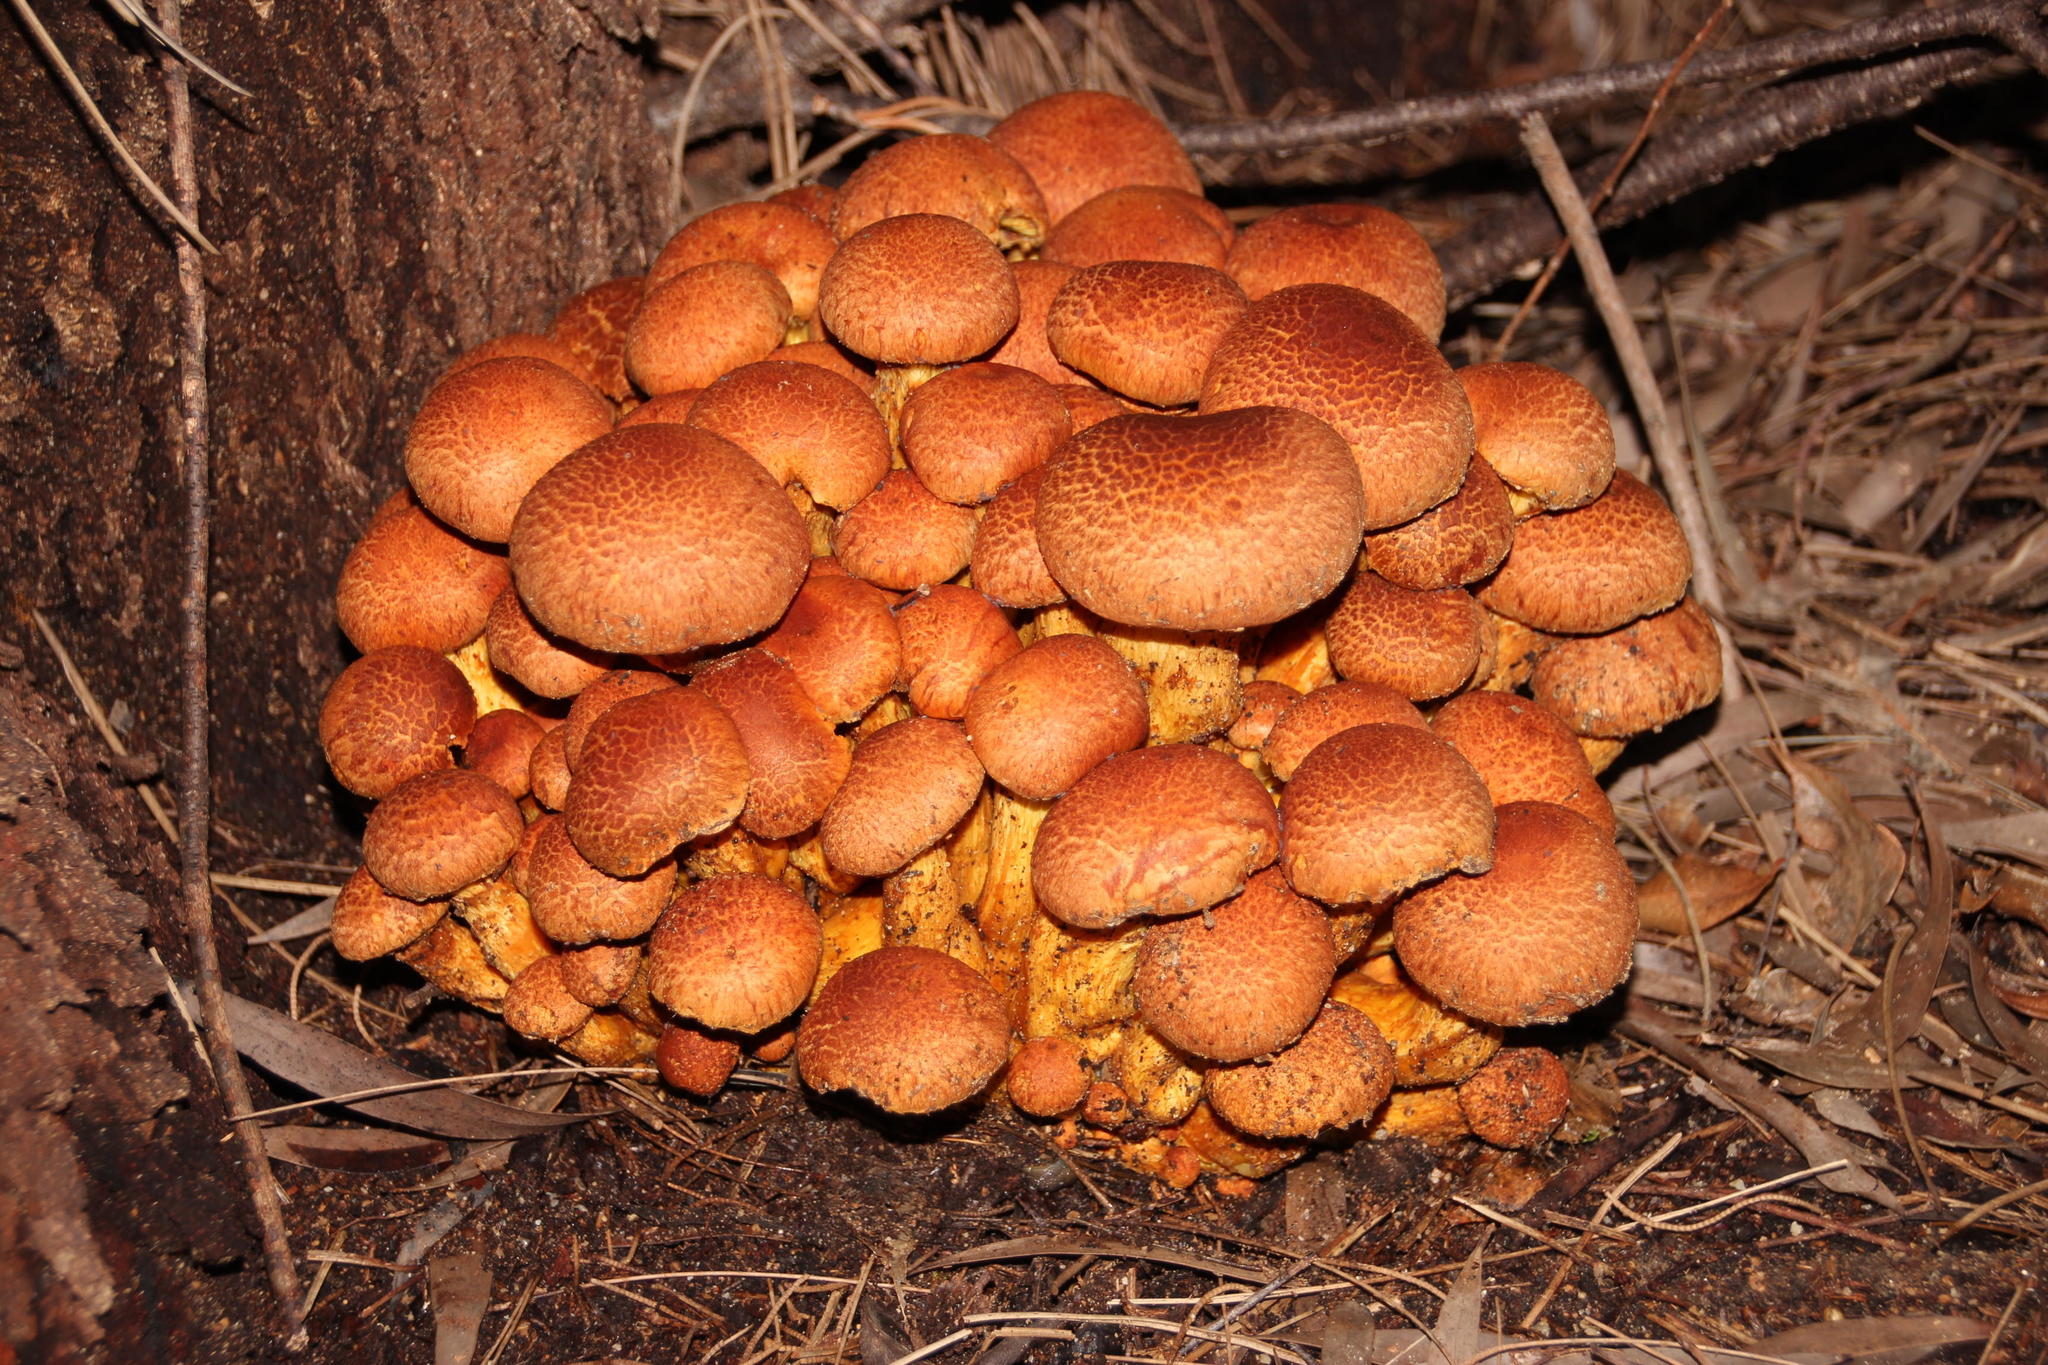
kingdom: Fungi
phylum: Basidiomycota
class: Agaricomycetes
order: Agaricales
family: Hymenogastraceae
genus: Gymnopilus
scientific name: Gymnopilus junonius
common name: Spectacular rustgill
